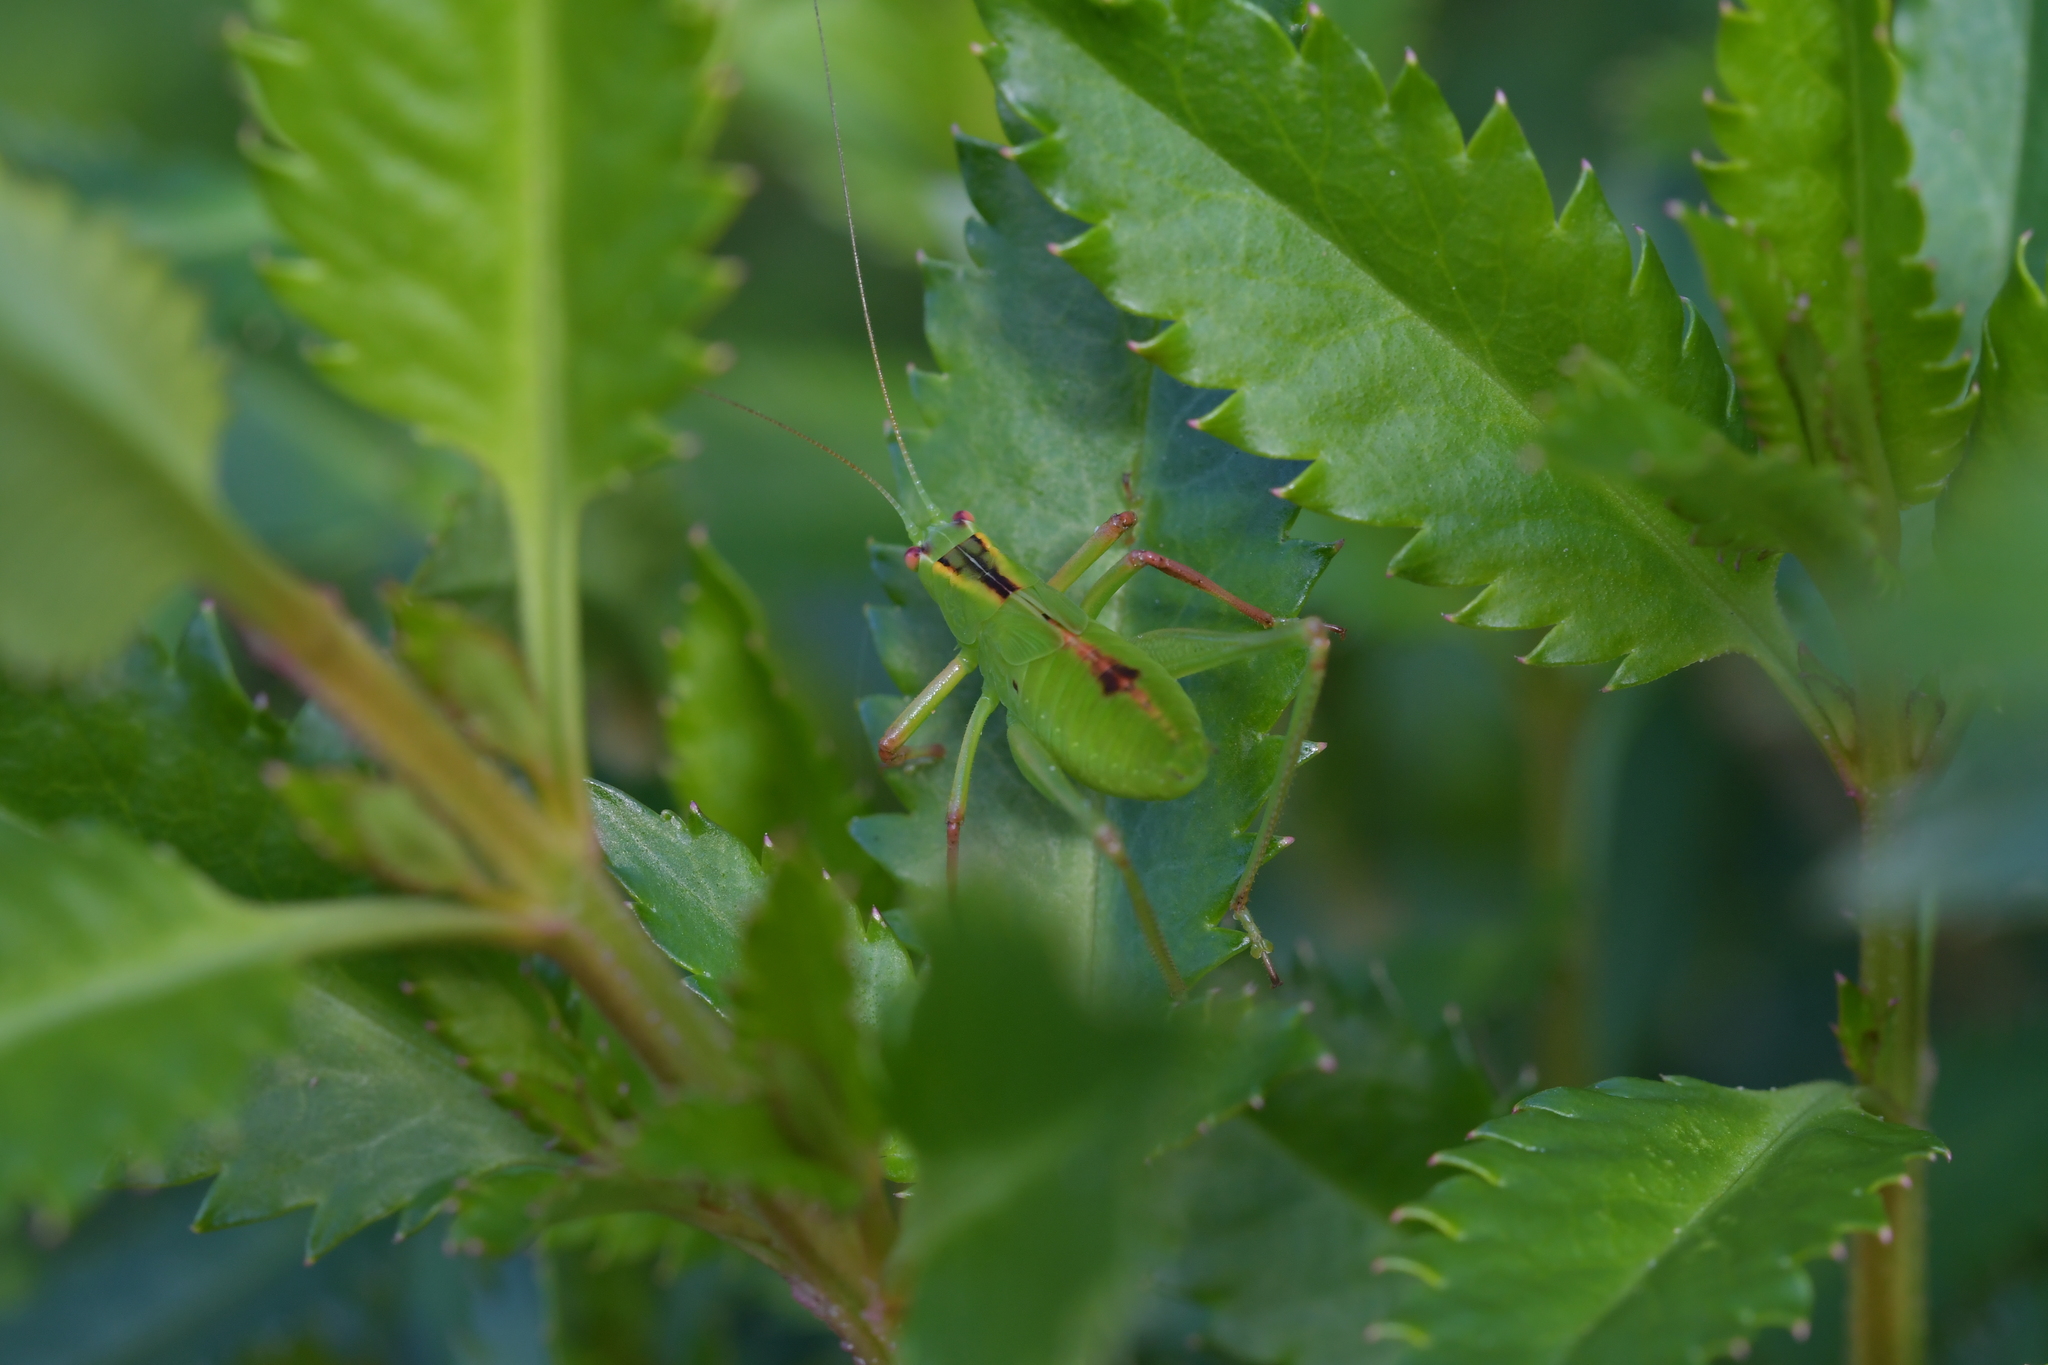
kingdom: Animalia
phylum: Arthropoda
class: Insecta
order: Orthoptera
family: Tettigoniidae
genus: Caedicia
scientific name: Caedicia simplex
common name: Common garden katydid
